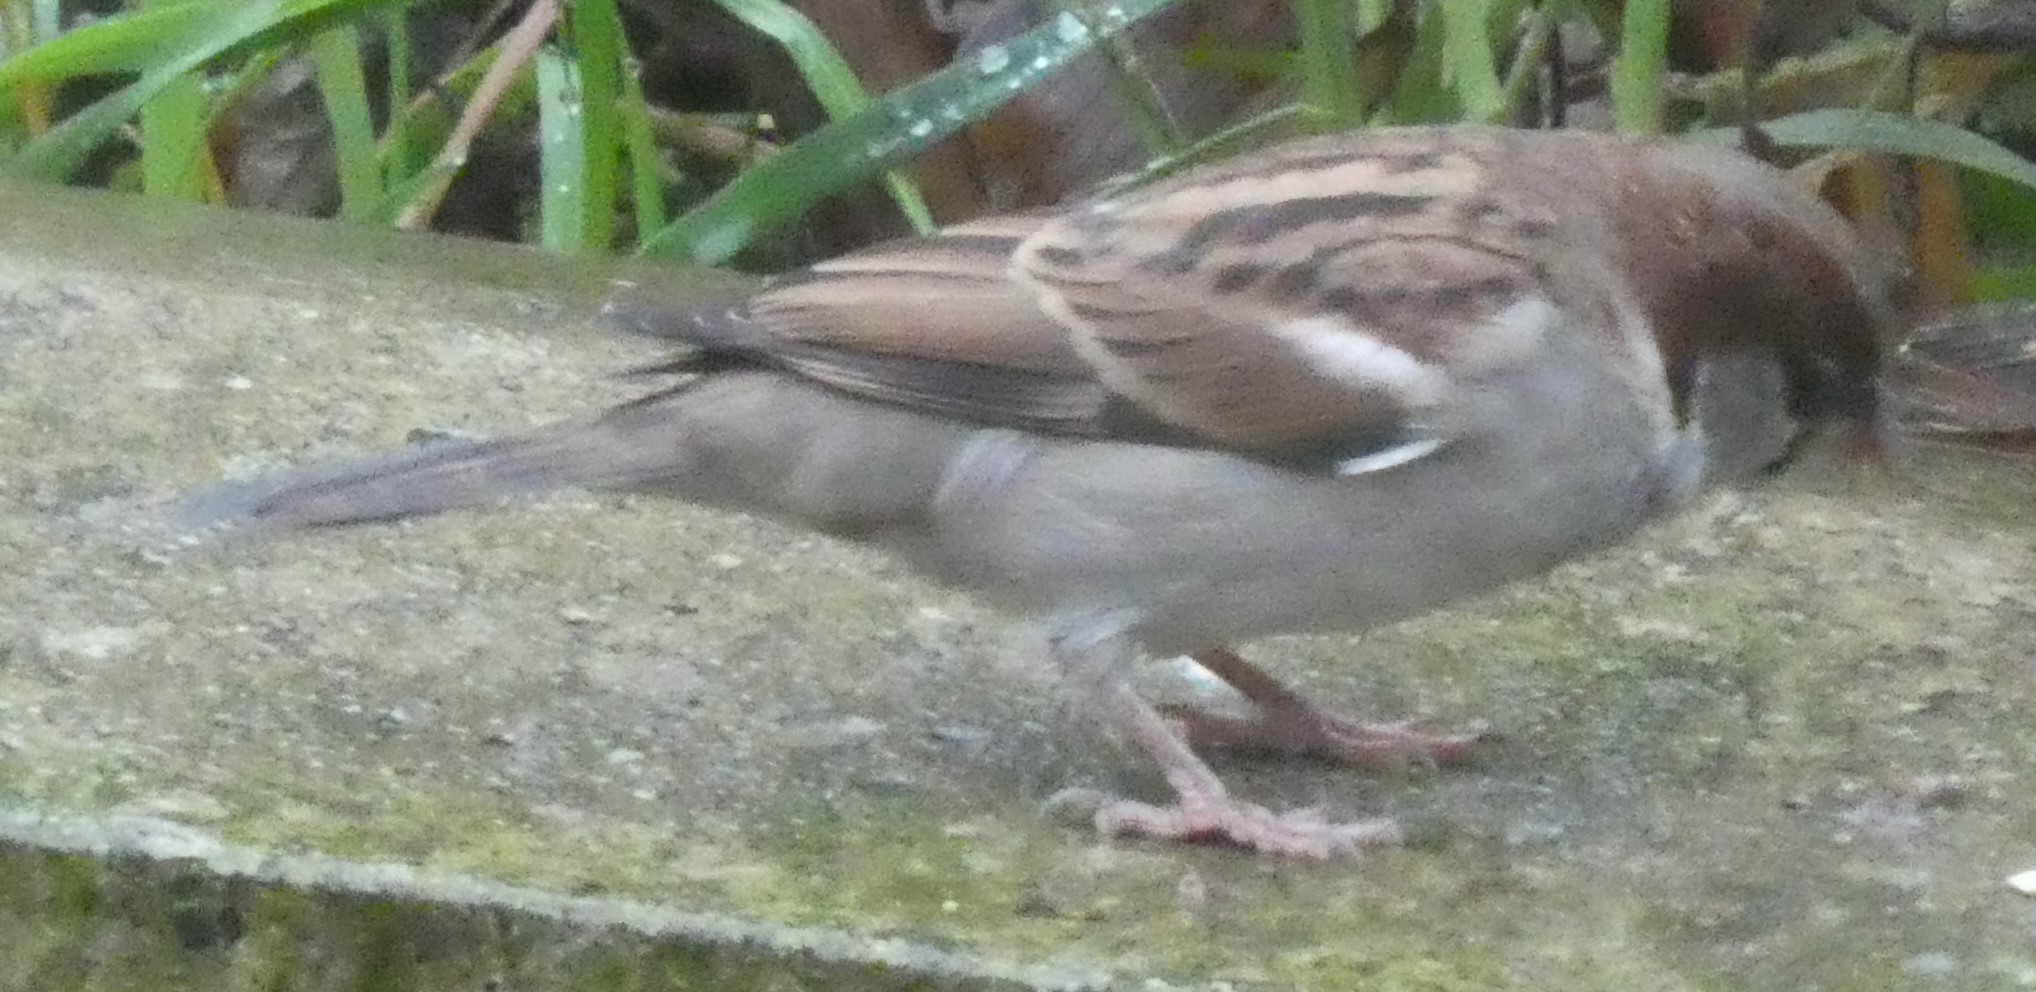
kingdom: Animalia
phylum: Chordata
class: Aves
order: Passeriformes
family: Passeridae
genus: Passer
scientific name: Passer domesticus
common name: House sparrow
